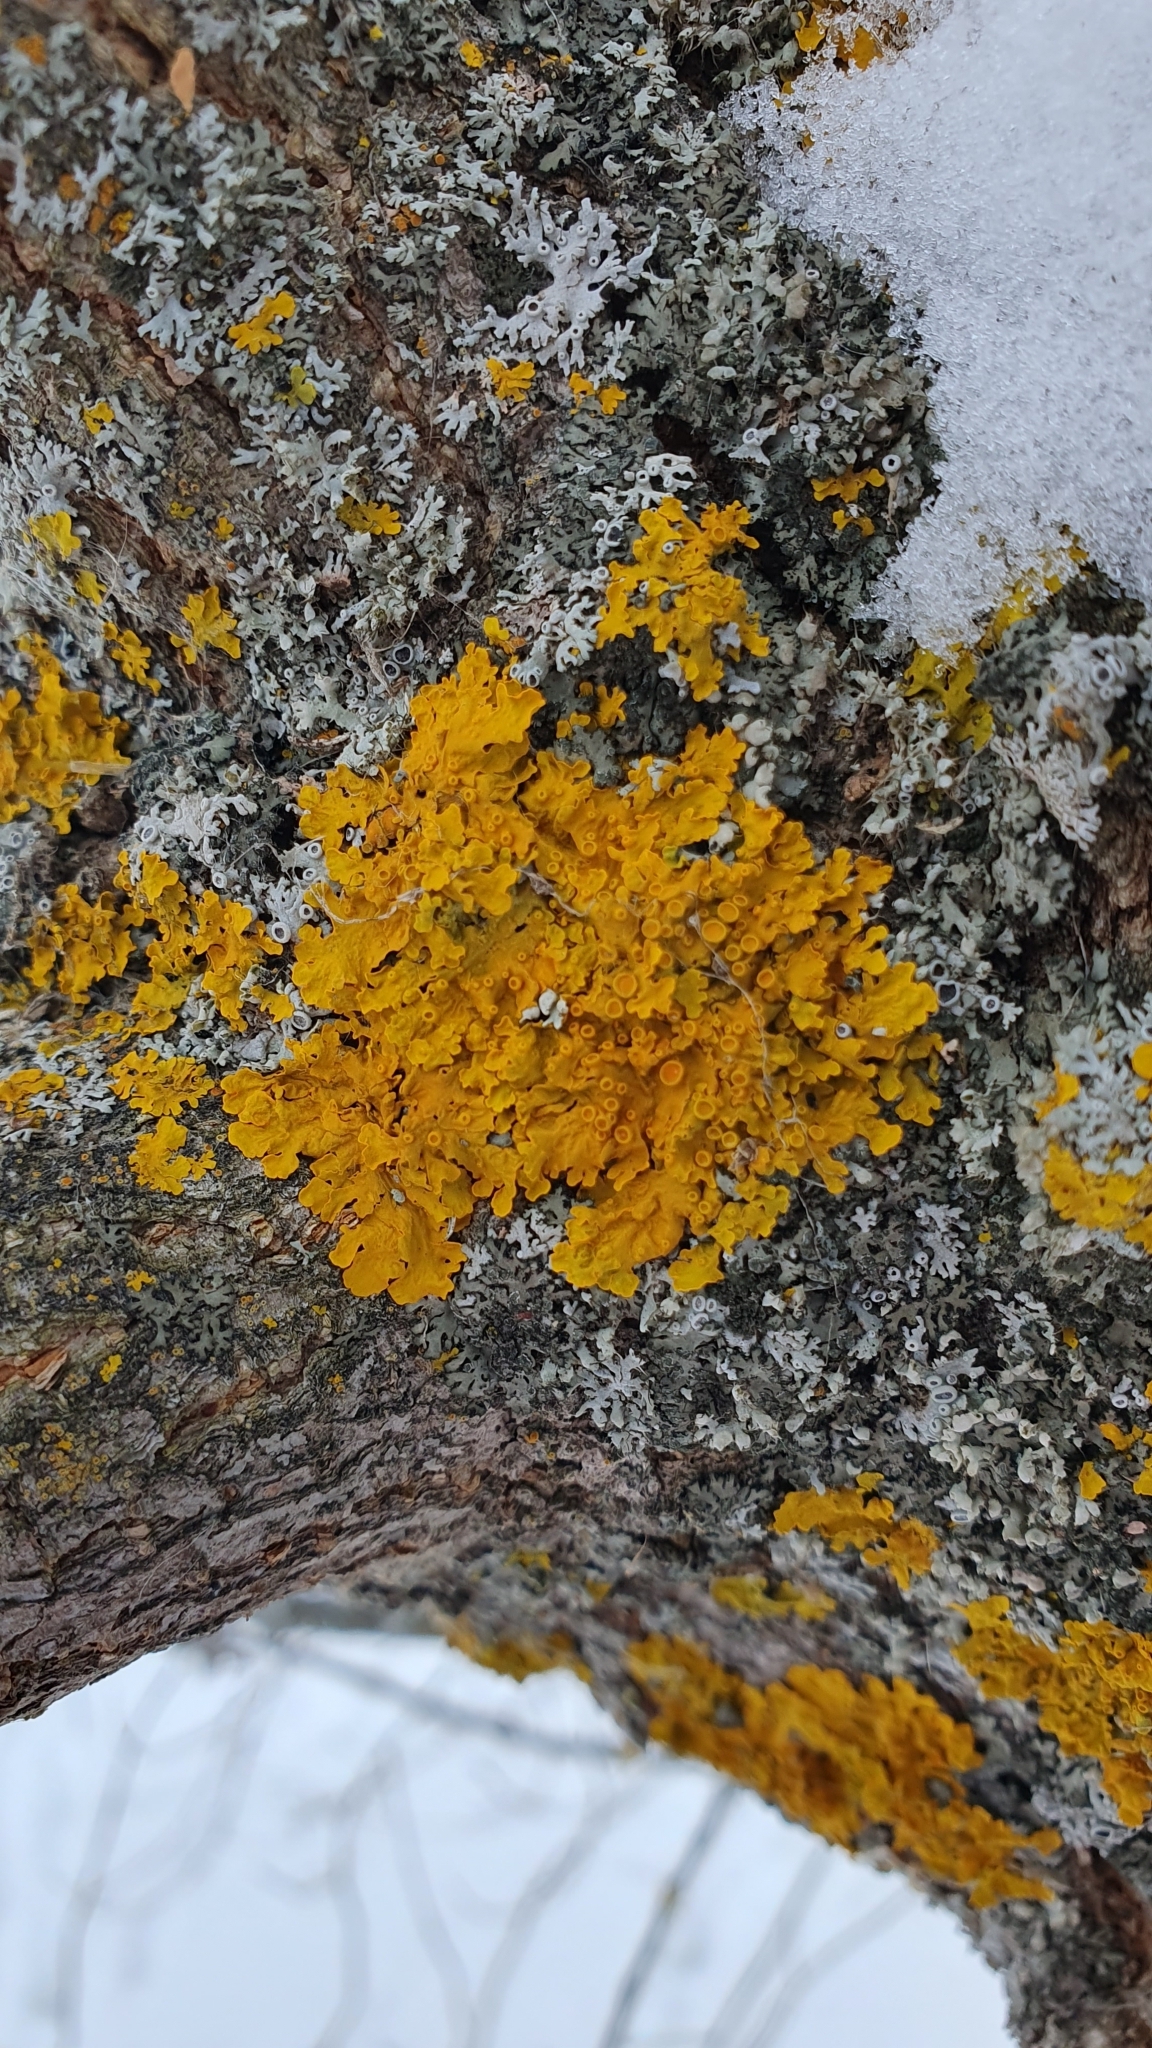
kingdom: Fungi
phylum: Ascomycota
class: Lecanoromycetes
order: Teloschistales
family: Teloschistaceae
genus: Xanthoria
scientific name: Xanthoria parietina
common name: Common orange lichen
